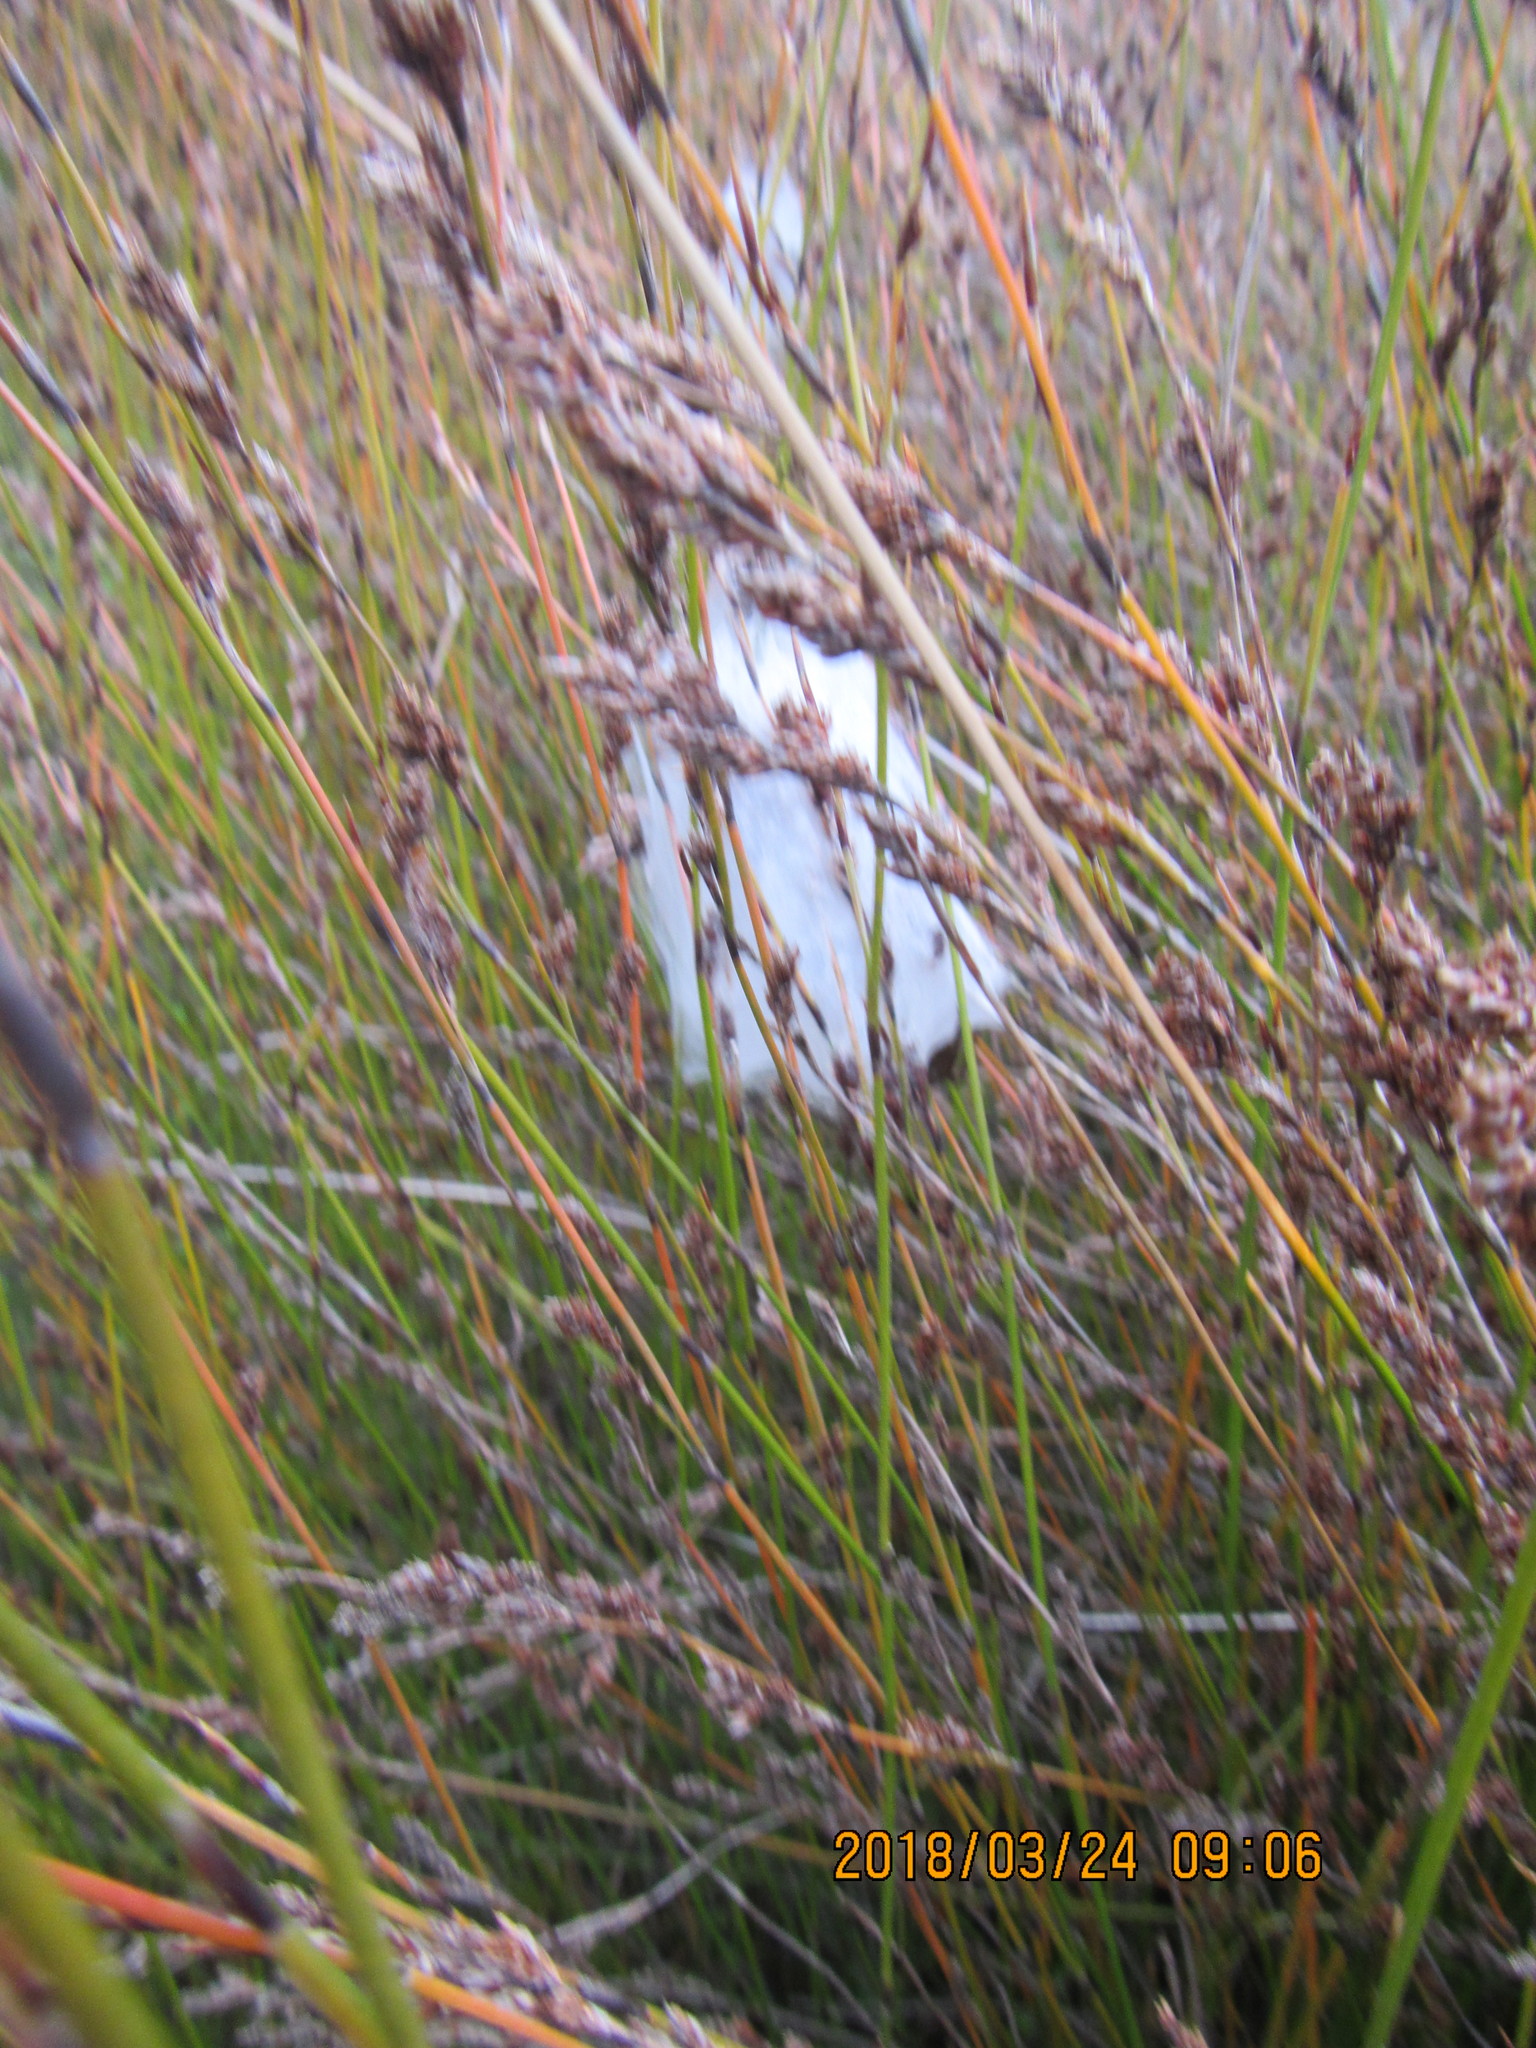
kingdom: Animalia
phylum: Arthropoda
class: Arachnida
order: Araneae
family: Pisauridae
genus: Dolomedes
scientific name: Dolomedes minor
